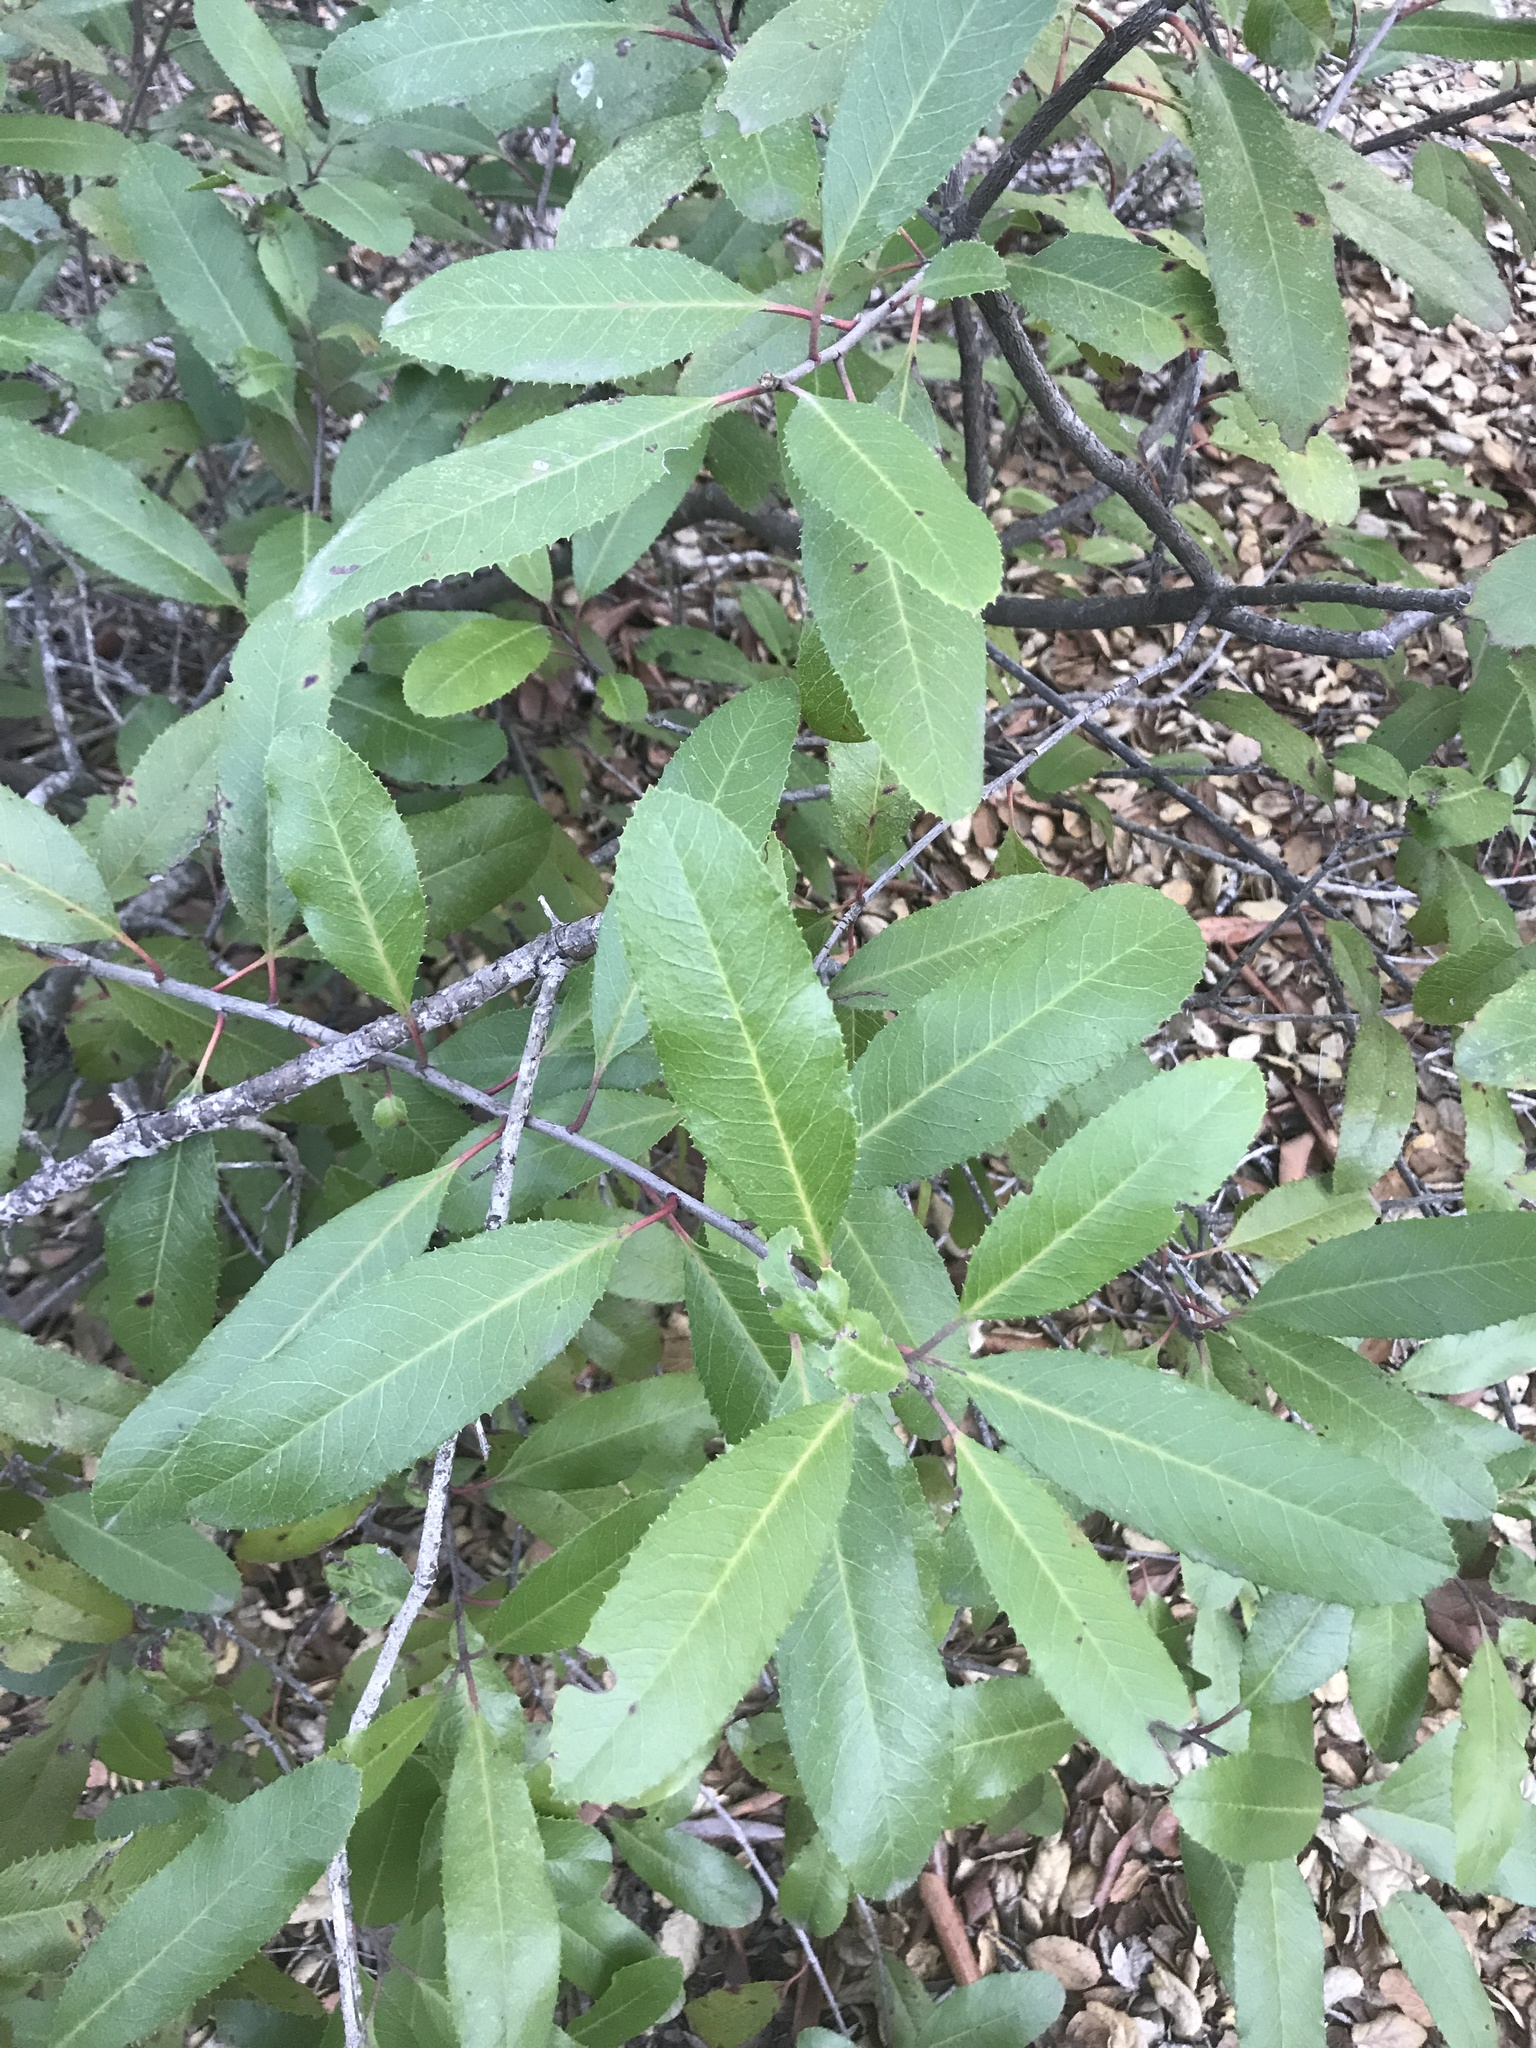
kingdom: Plantae
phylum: Tracheophyta
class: Magnoliopsida
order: Rosales
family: Rosaceae
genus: Heteromeles
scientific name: Heteromeles arbutifolia
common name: California-holly
